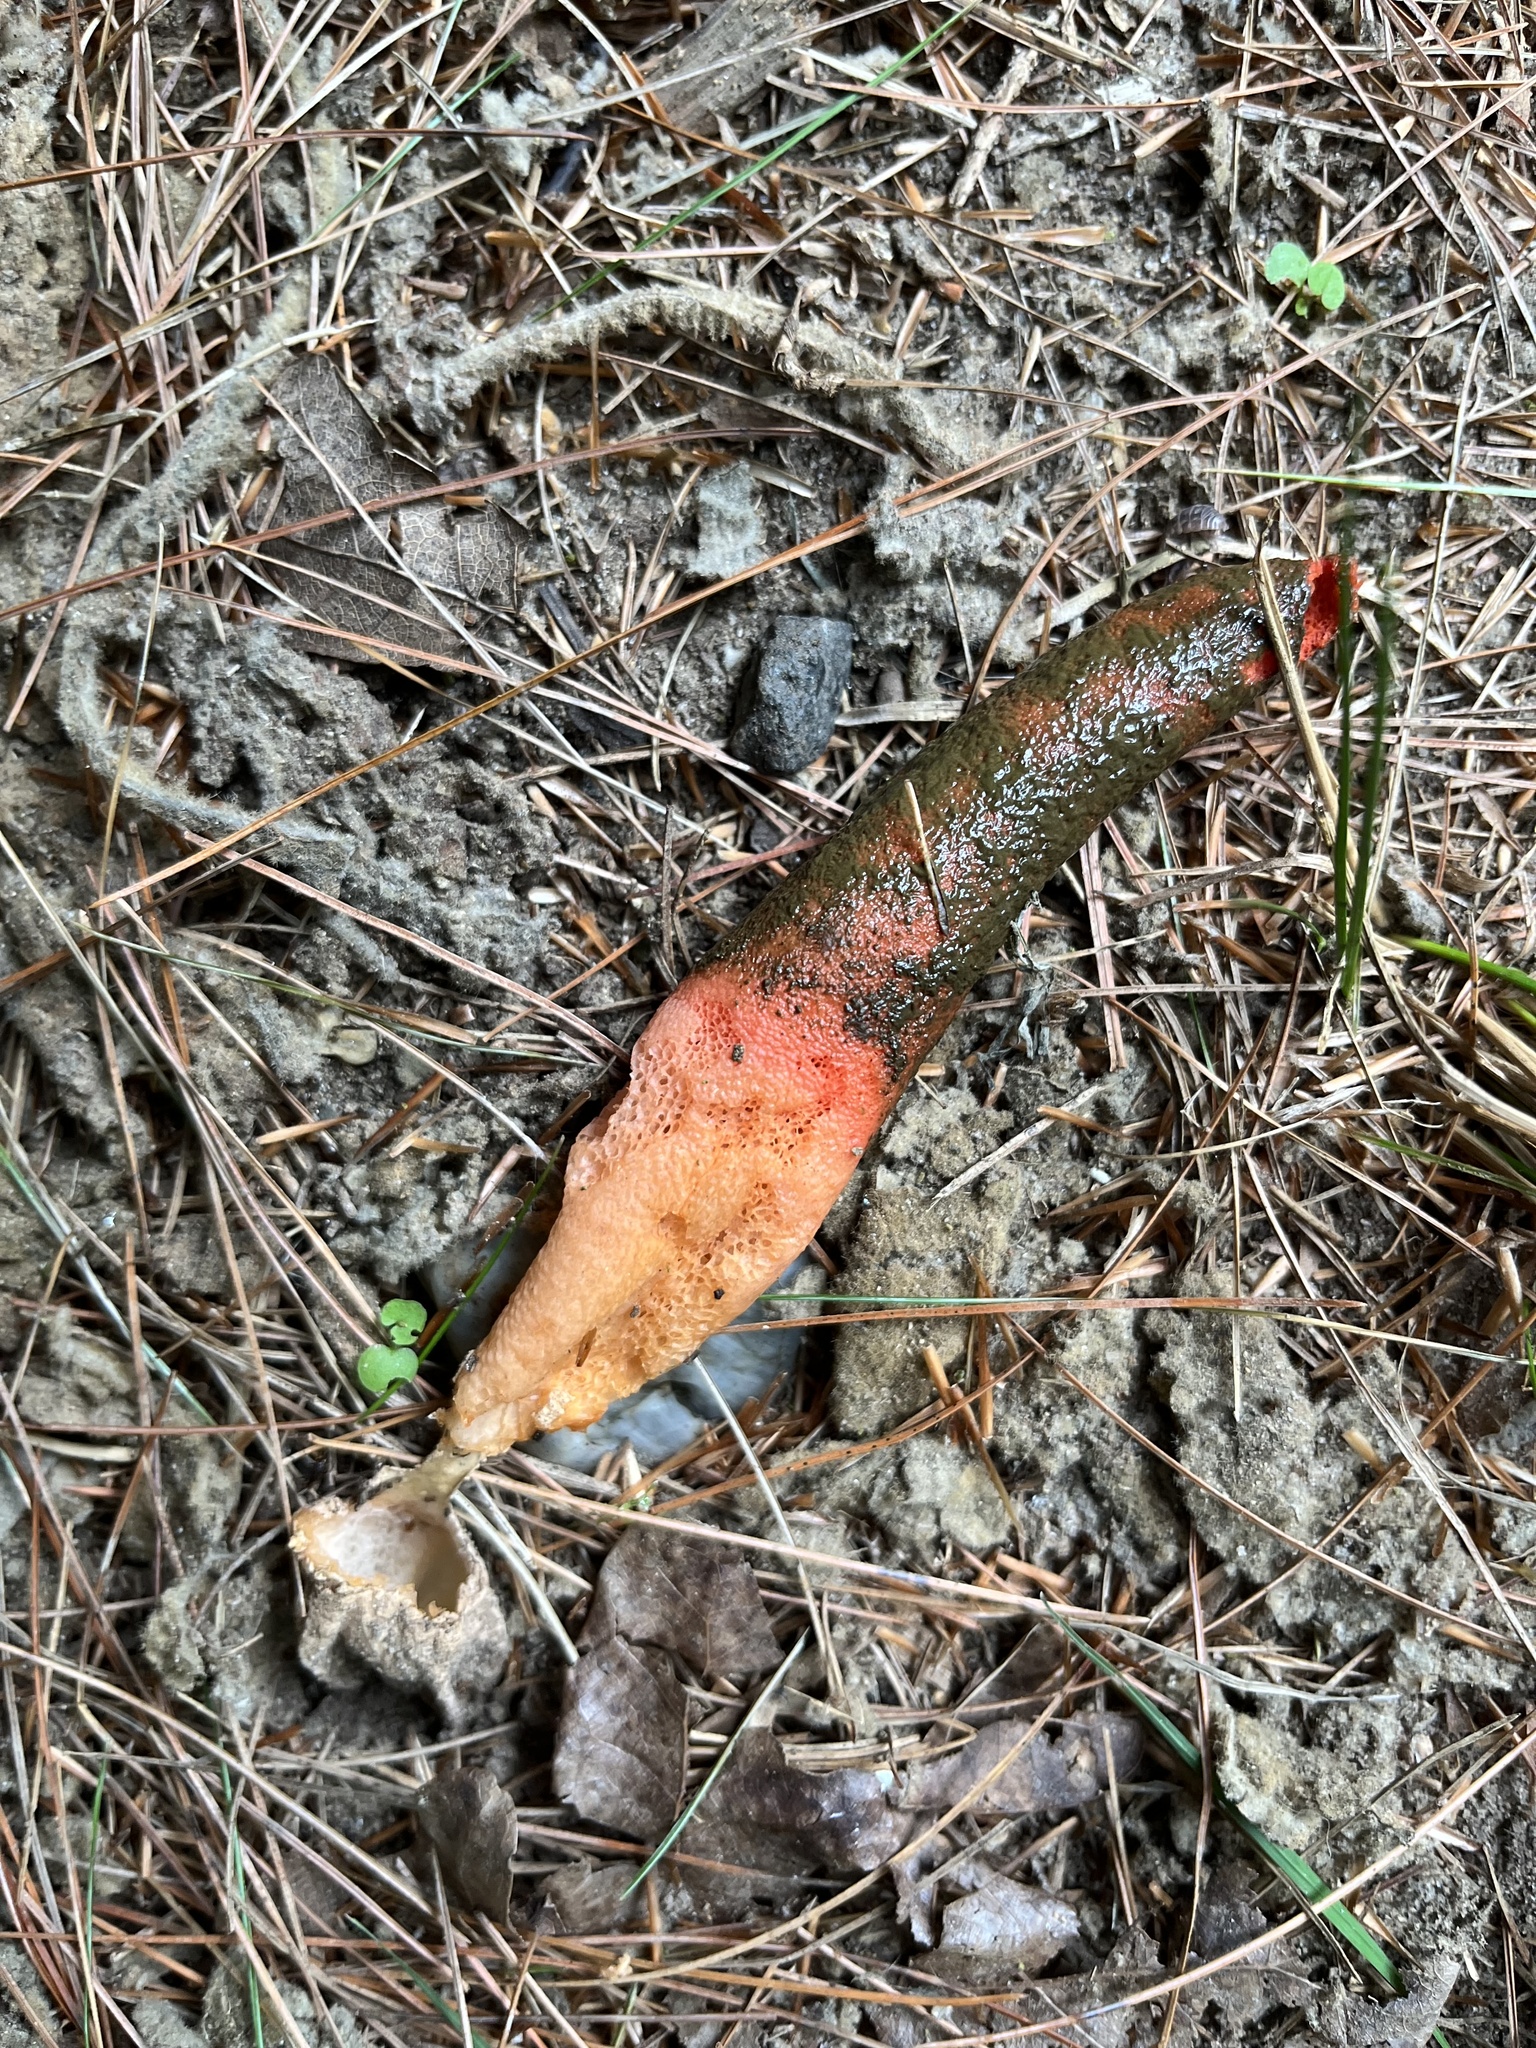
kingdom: Fungi
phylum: Basidiomycota
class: Agaricomycetes
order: Phallales
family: Phallaceae
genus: Mutinus
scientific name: Mutinus elegans
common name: Devil's dipstick
